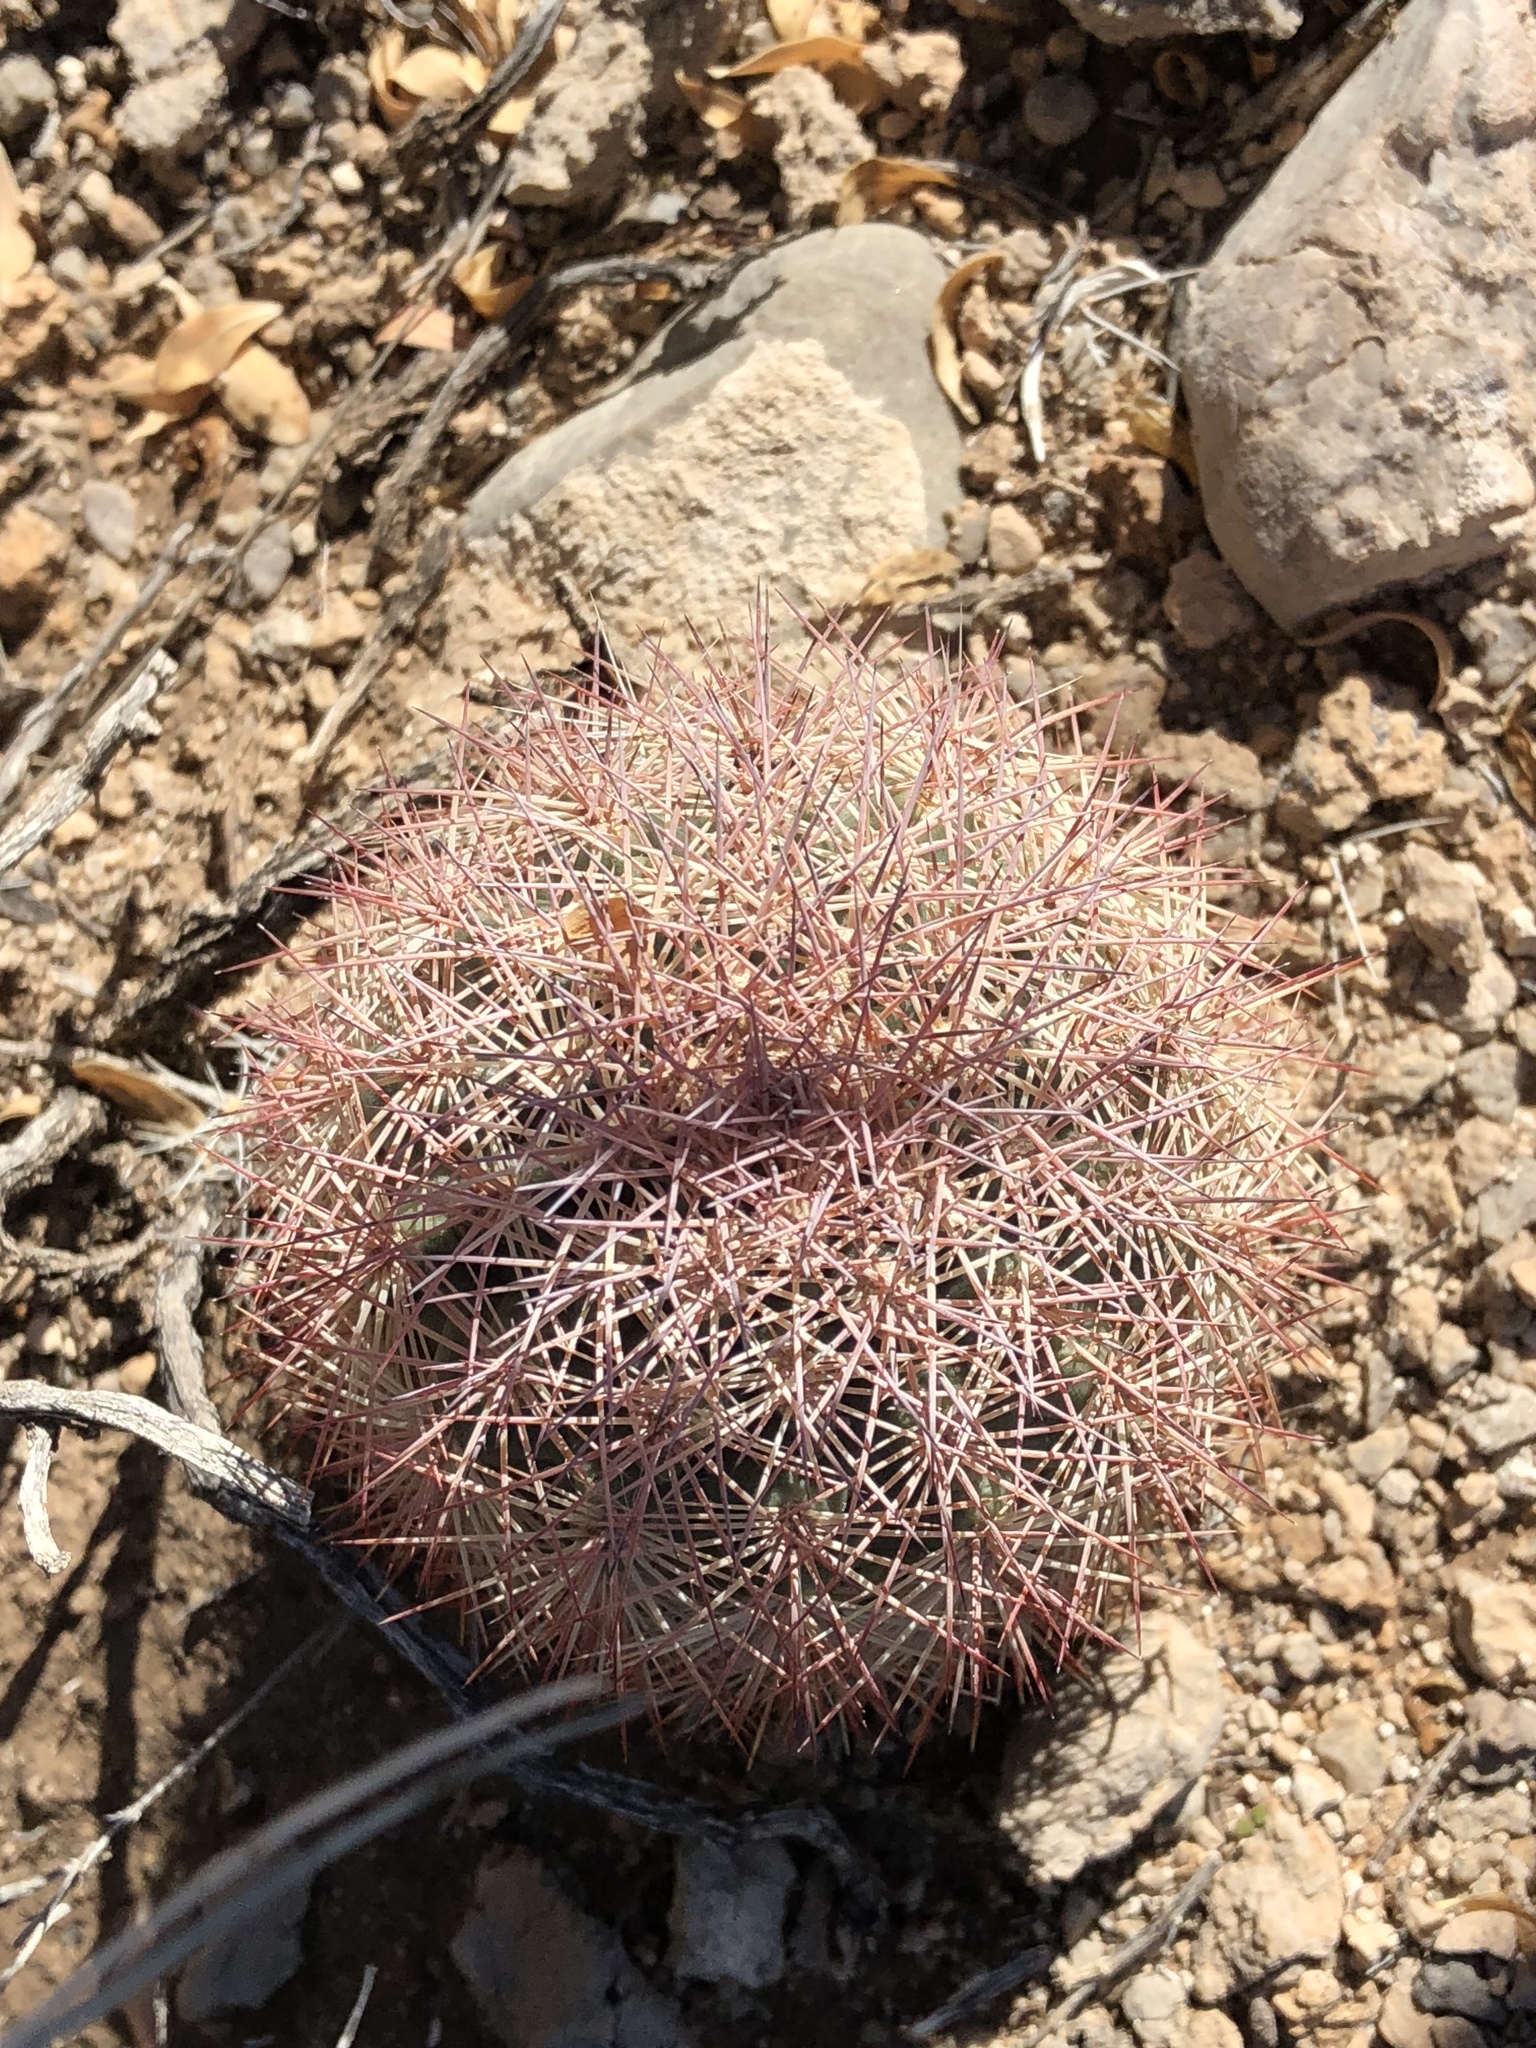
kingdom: Plantae
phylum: Tracheophyta
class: Magnoliopsida
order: Caryophyllales
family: Cactaceae
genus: Echinocereus
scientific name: Echinocereus dasyacanthus
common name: Spiny hedgehog cactus
